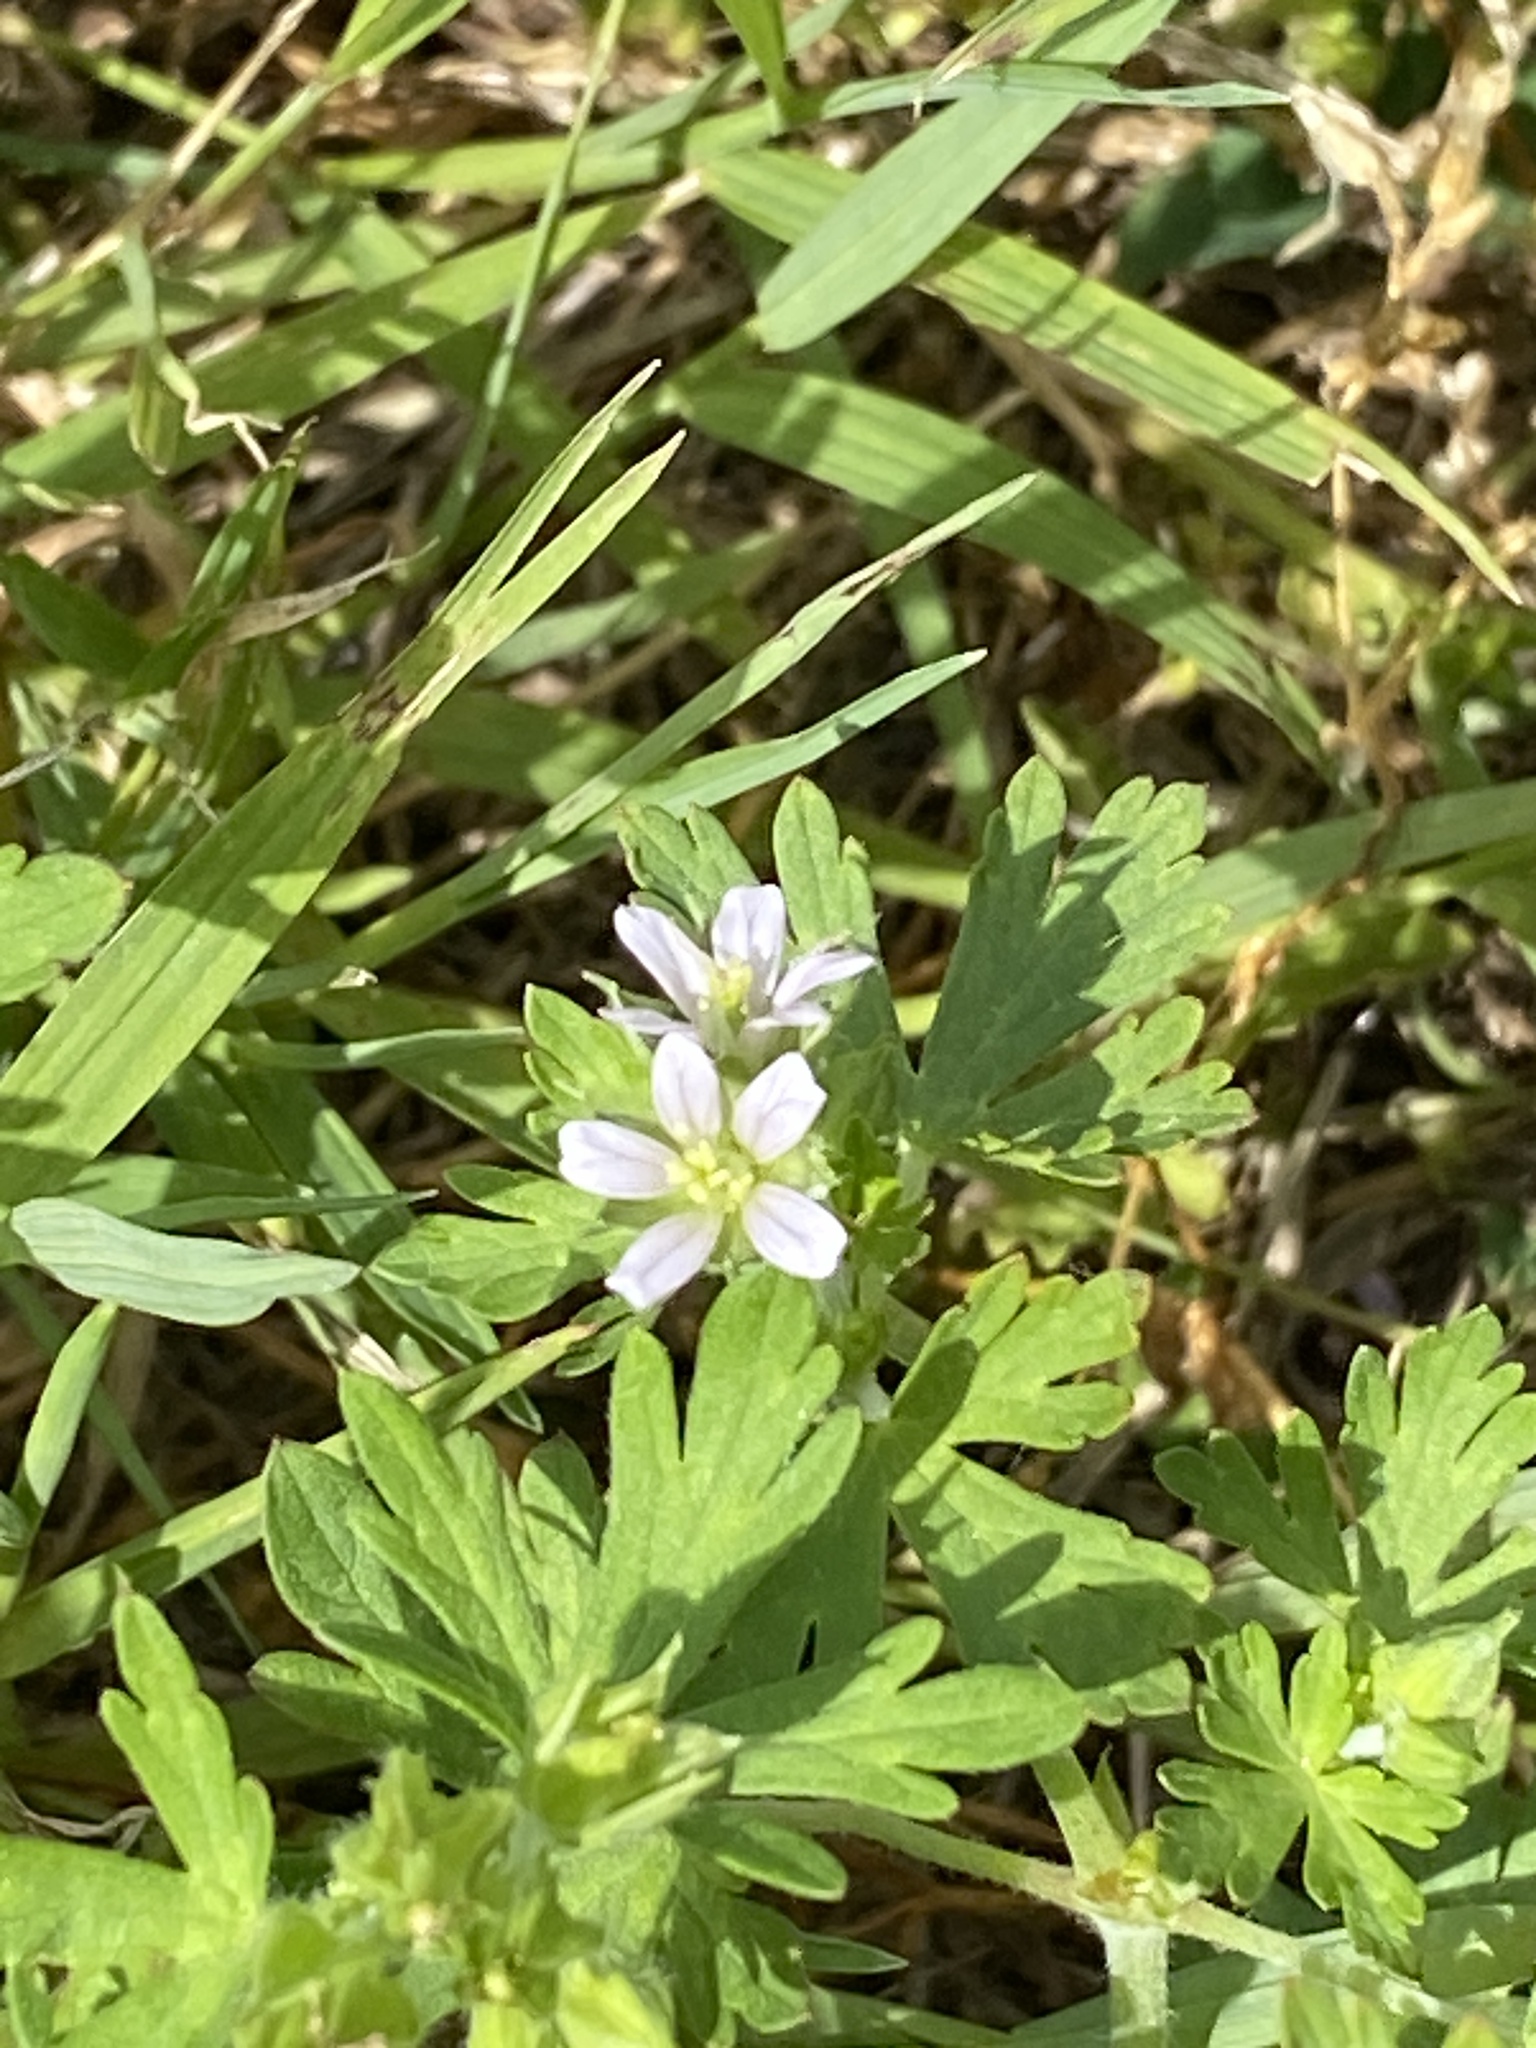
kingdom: Plantae
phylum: Tracheophyta
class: Magnoliopsida
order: Geraniales
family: Geraniaceae
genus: Geranium
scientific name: Geranium carolinianum
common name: Carolina crane's-bill
